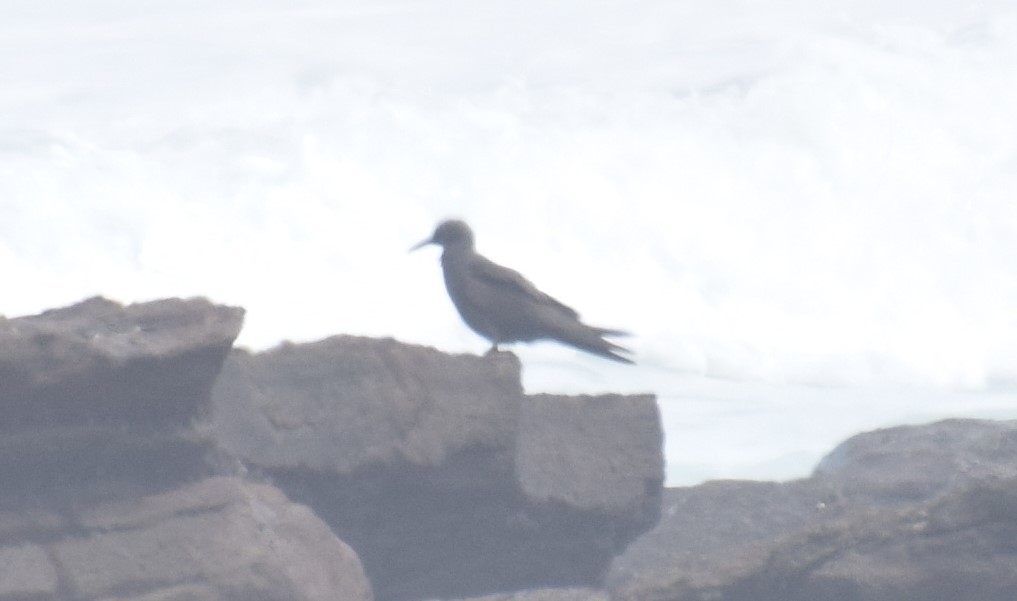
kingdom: Animalia
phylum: Chordata
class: Aves
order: Charadriiformes
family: Laridae
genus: Anous
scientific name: Anous stolidus
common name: Brown noddy
